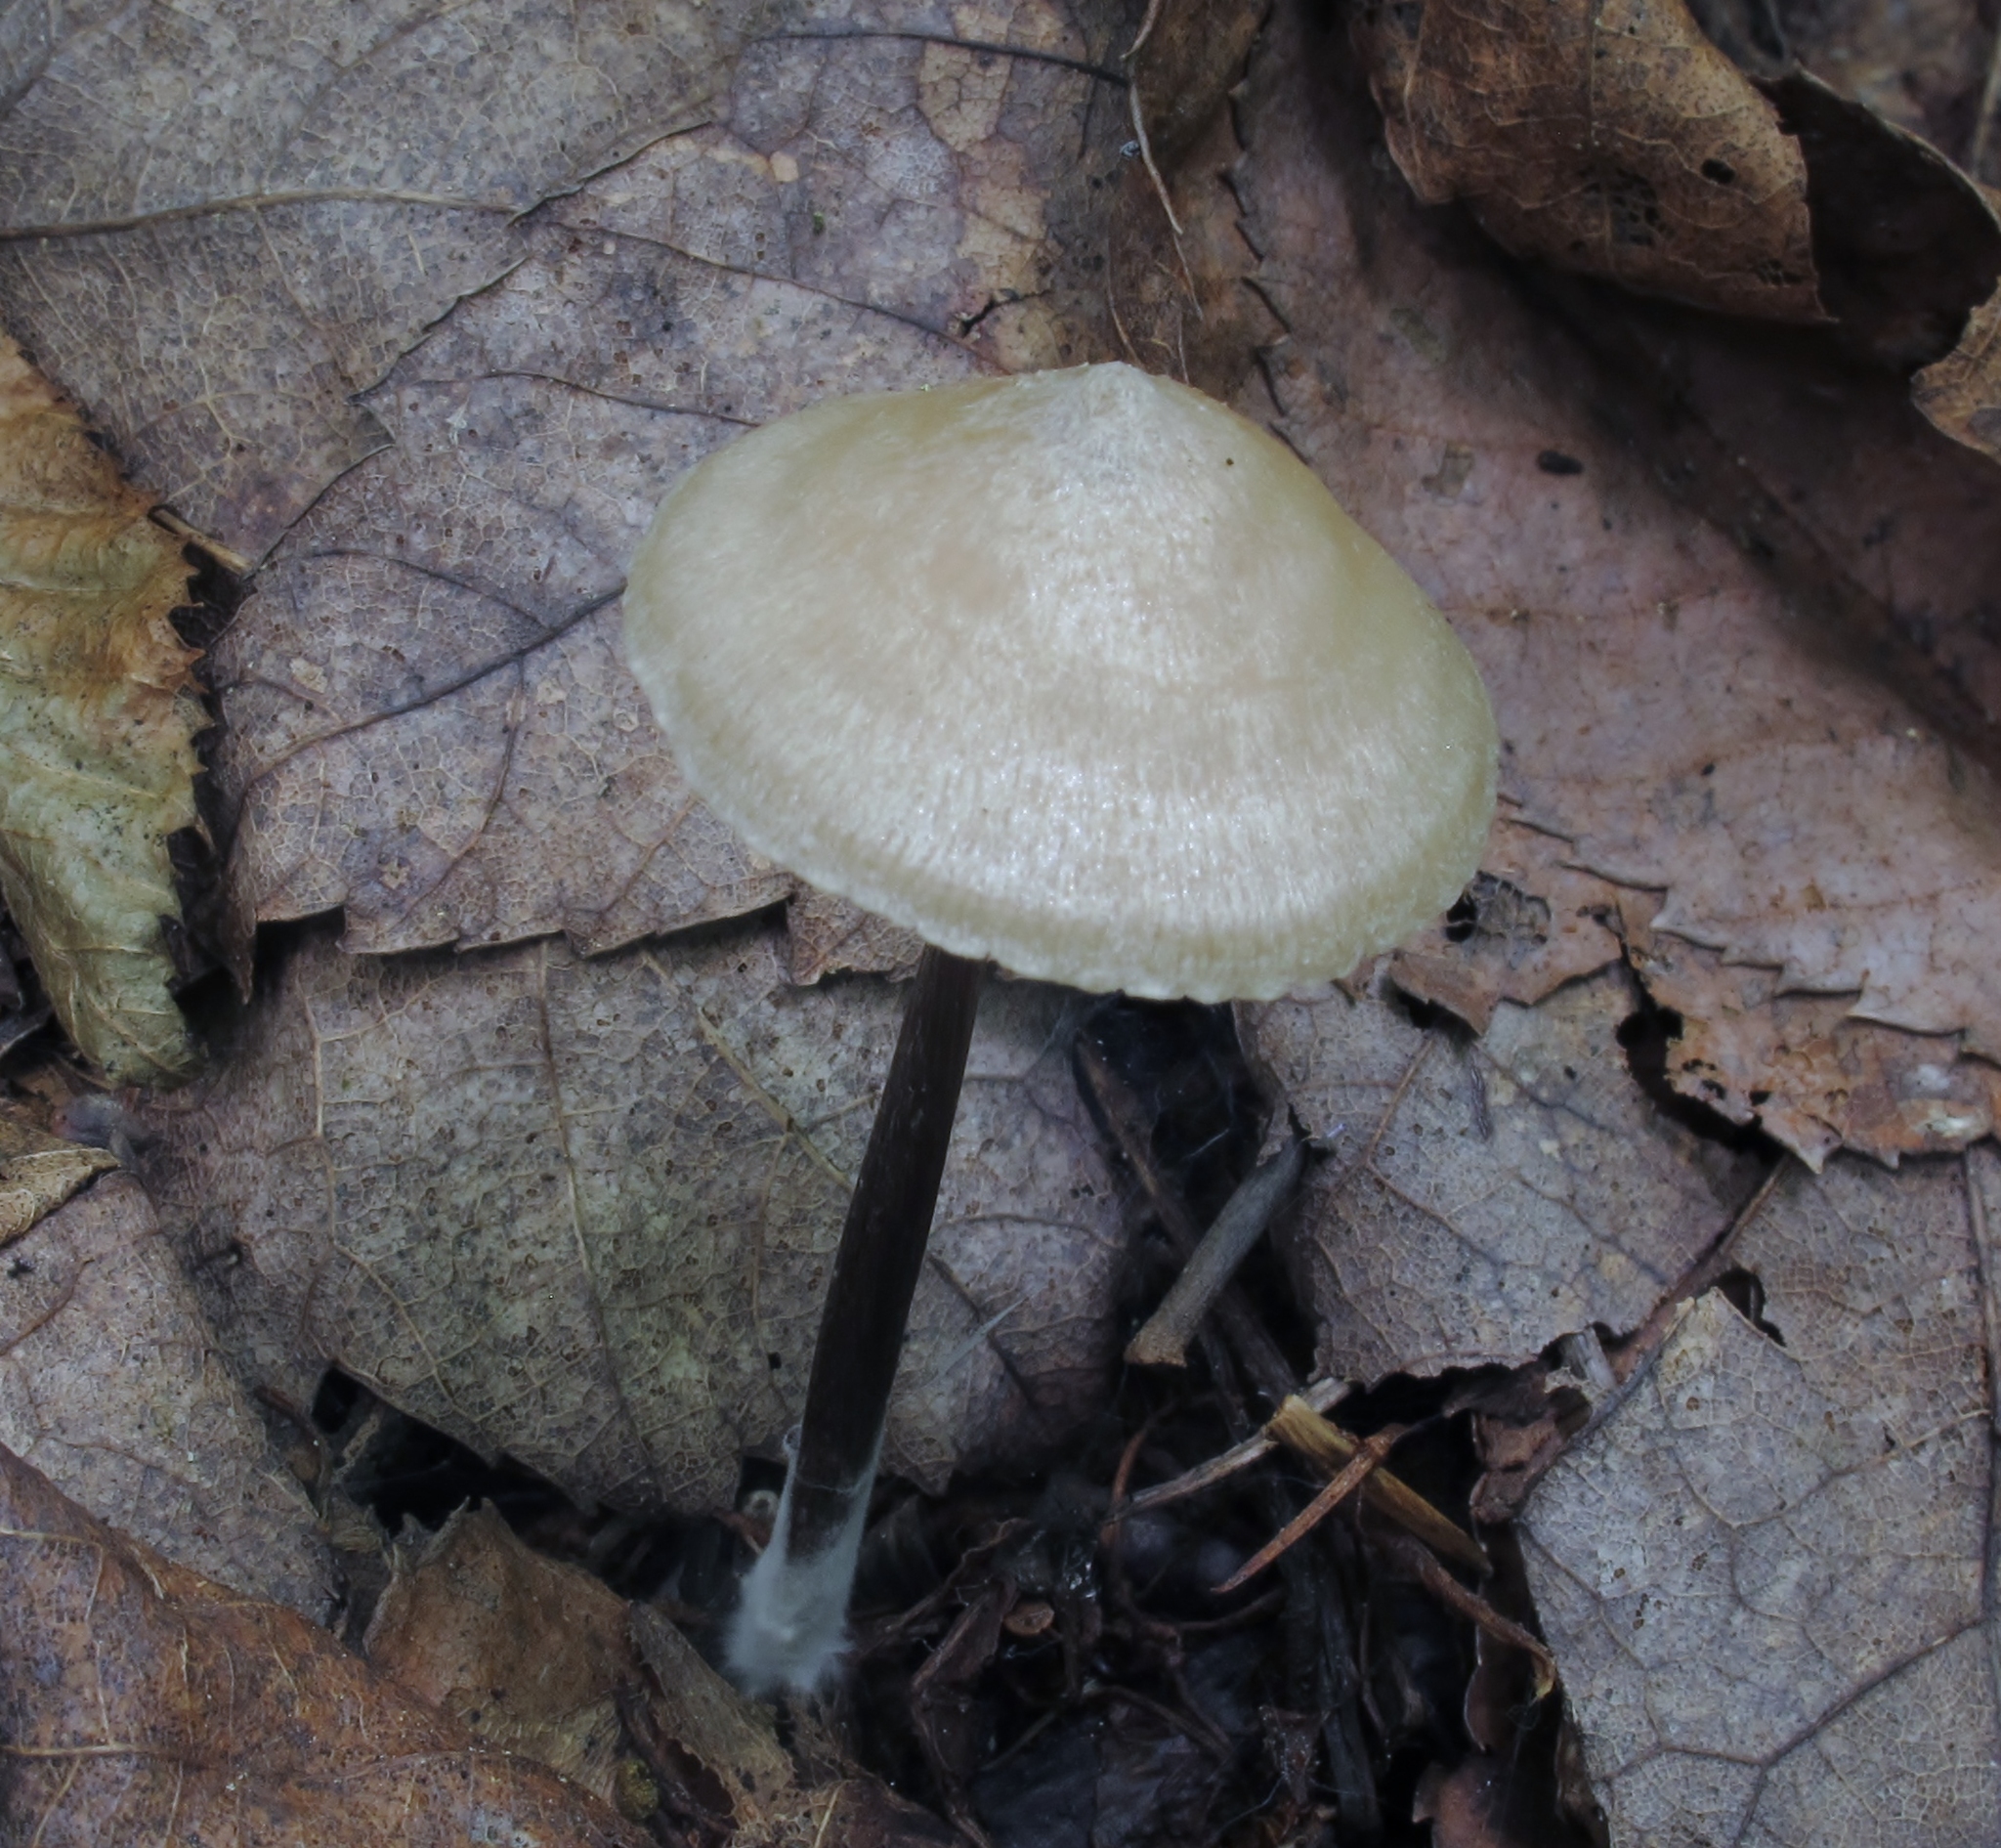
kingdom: Fungi
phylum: Basidiomycota
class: Agaricomycetes
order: Agaricales
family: Entolomataceae
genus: Entoloma
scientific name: Entoloma conicum
